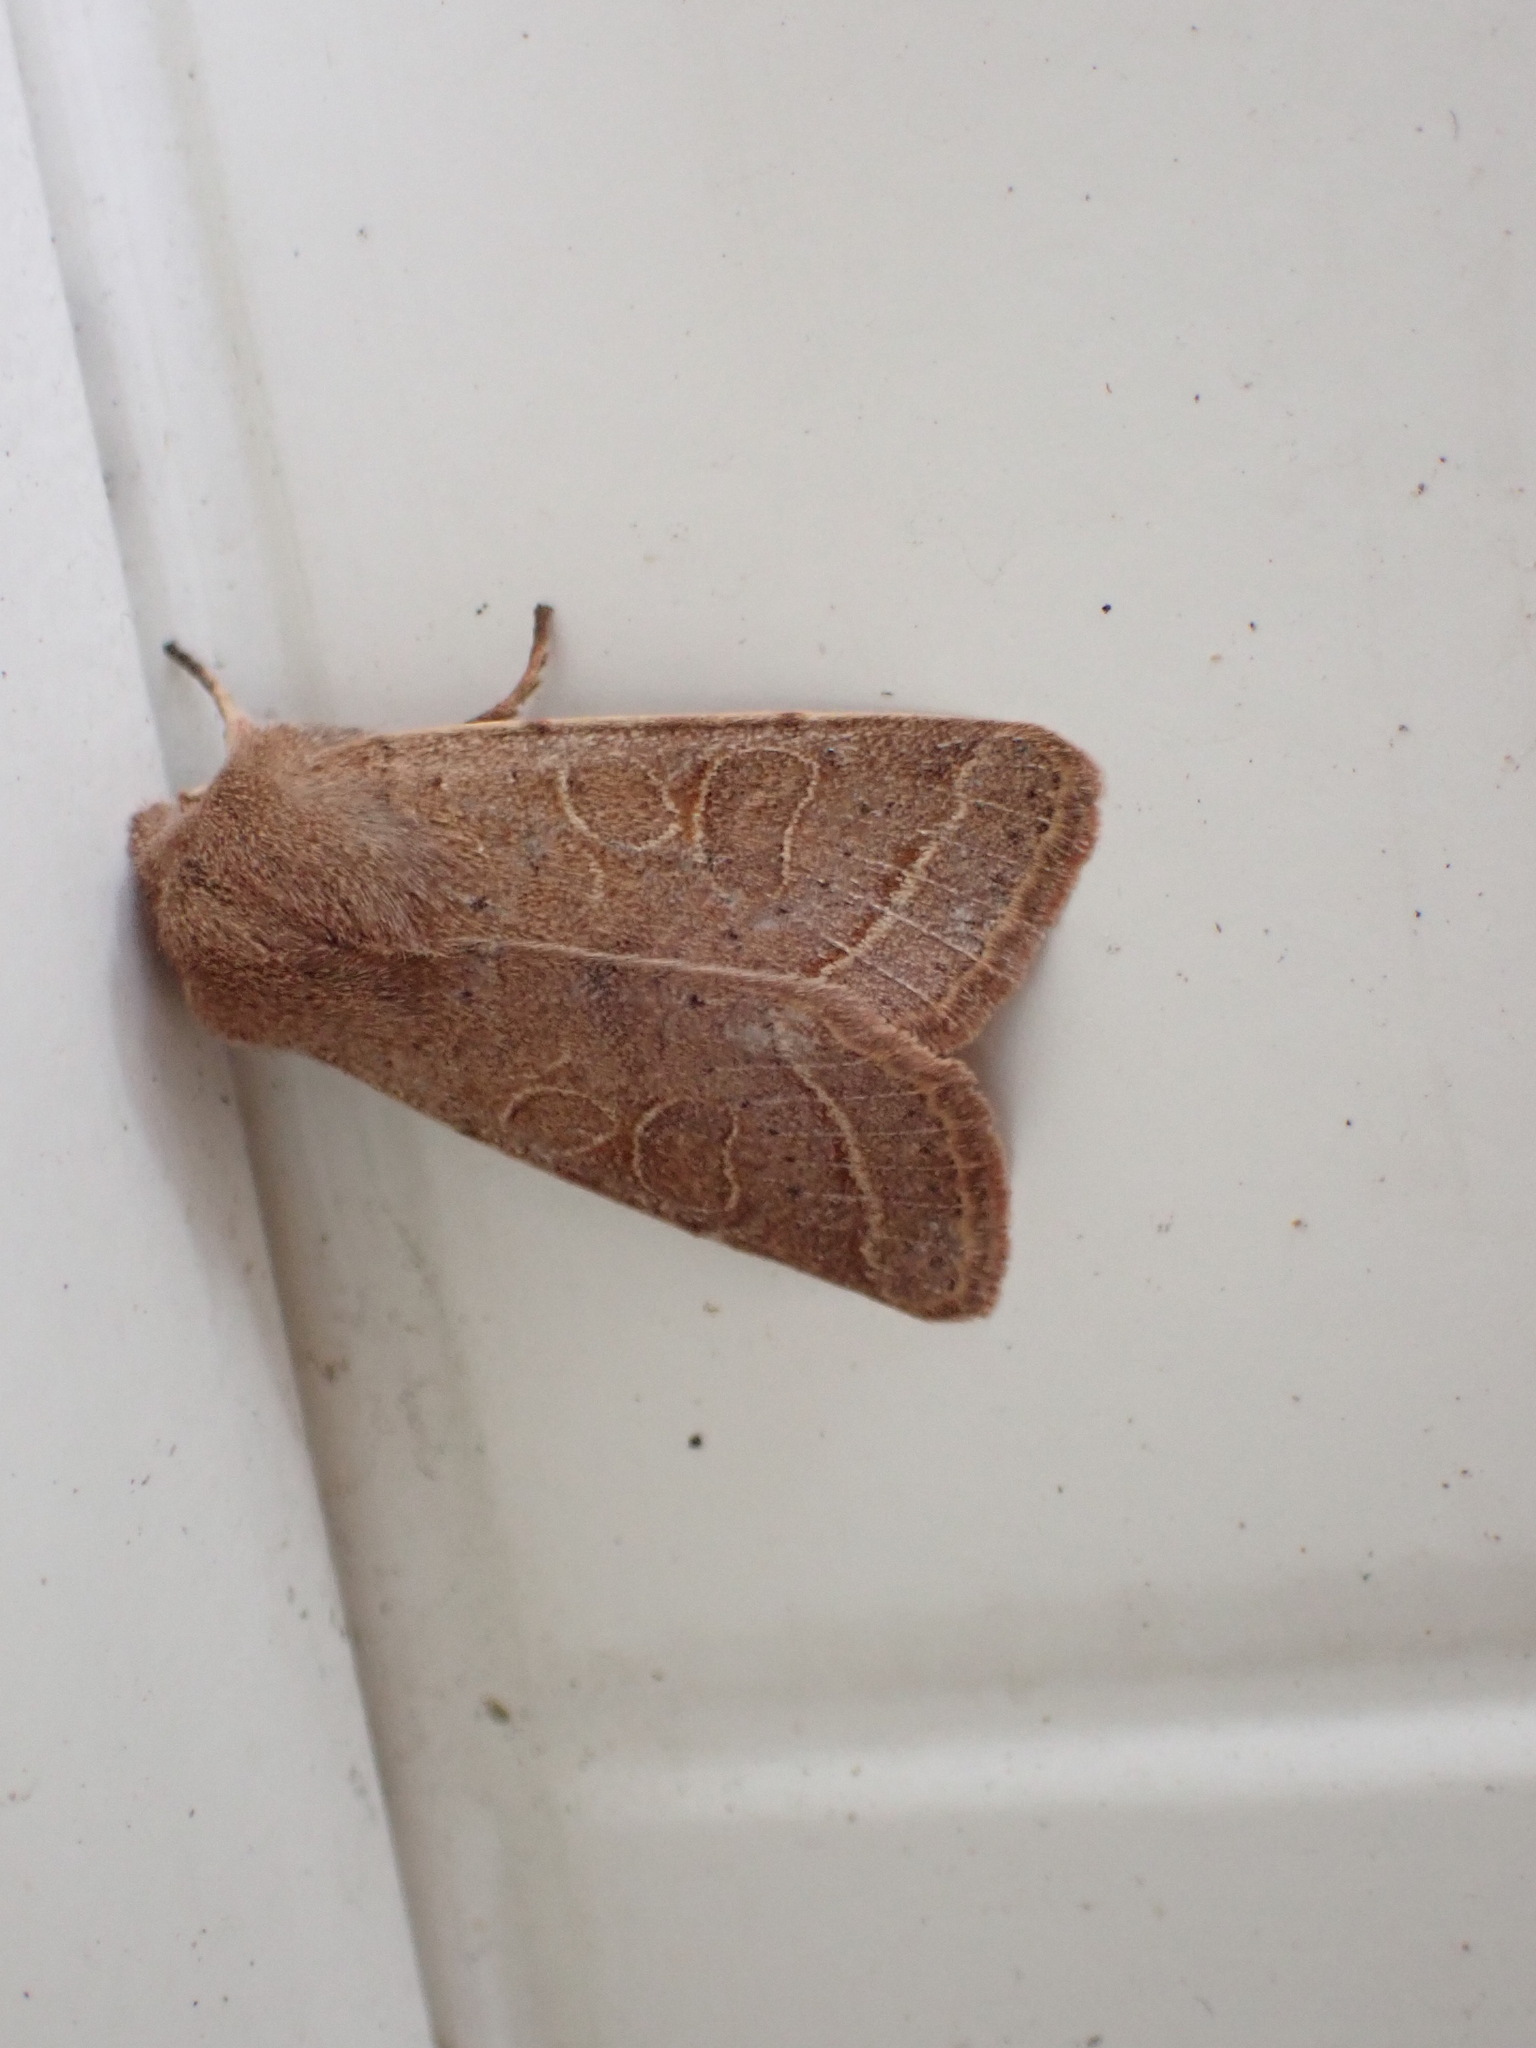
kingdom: Animalia
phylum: Arthropoda
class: Insecta
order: Lepidoptera
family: Noctuidae
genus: Orthosia
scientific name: Orthosia cerasi
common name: Common quaker
